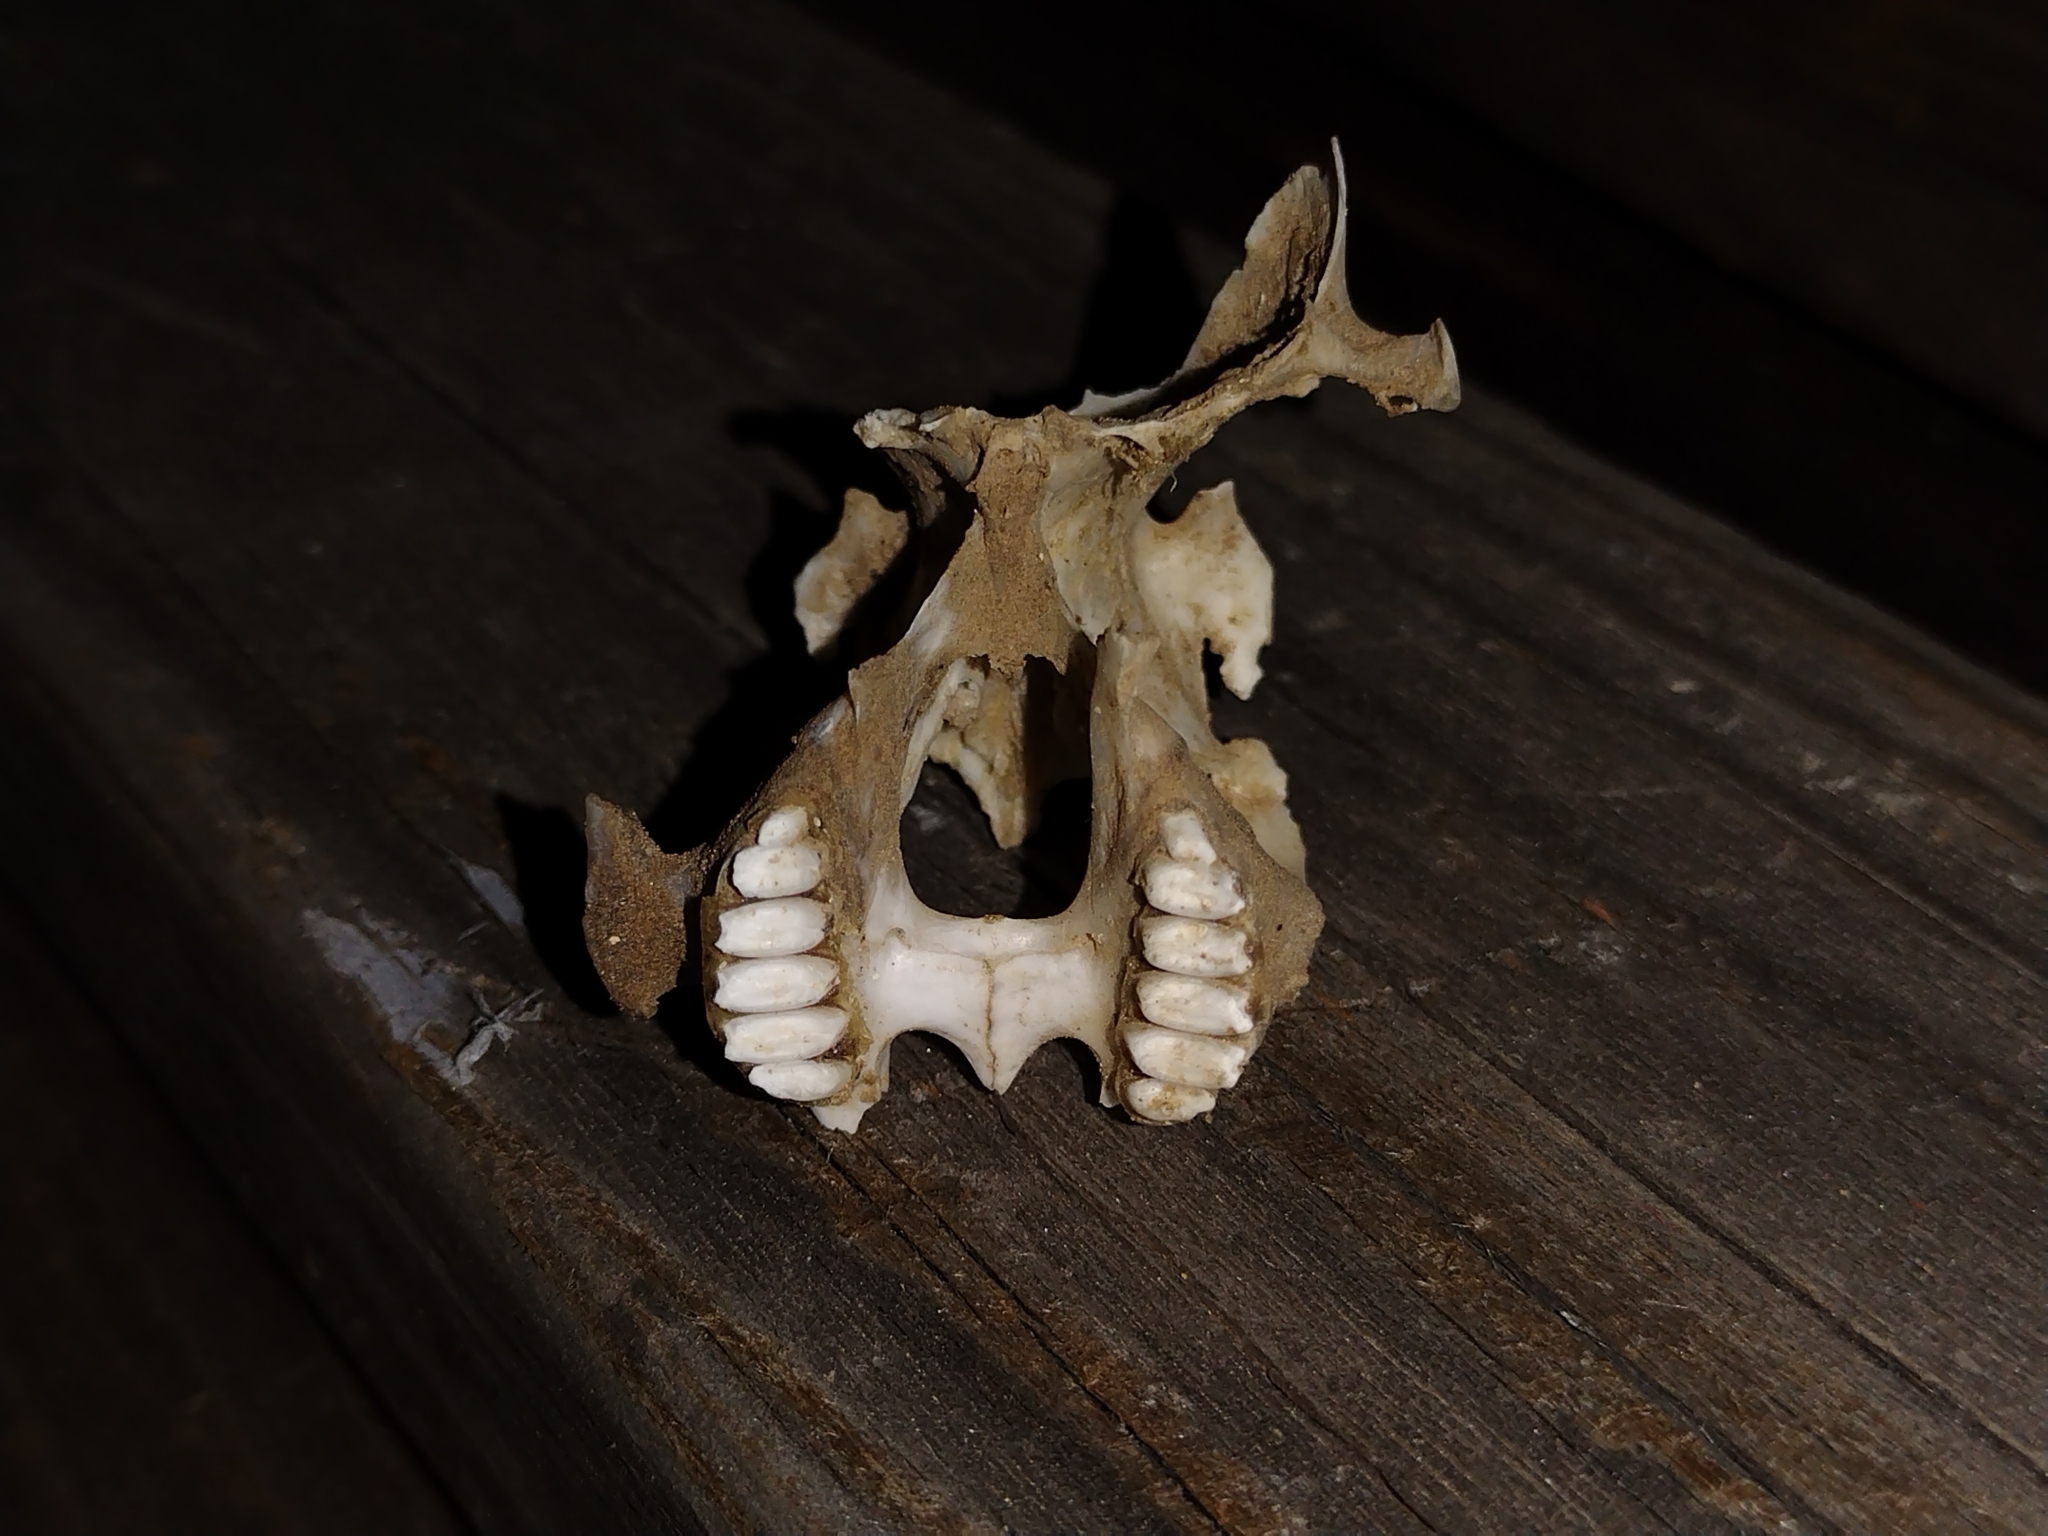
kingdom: Animalia
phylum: Chordata
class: Mammalia
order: Lagomorpha
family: Leporidae
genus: Lepus
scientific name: Lepus californicus
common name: Black-tailed jackrabbit
